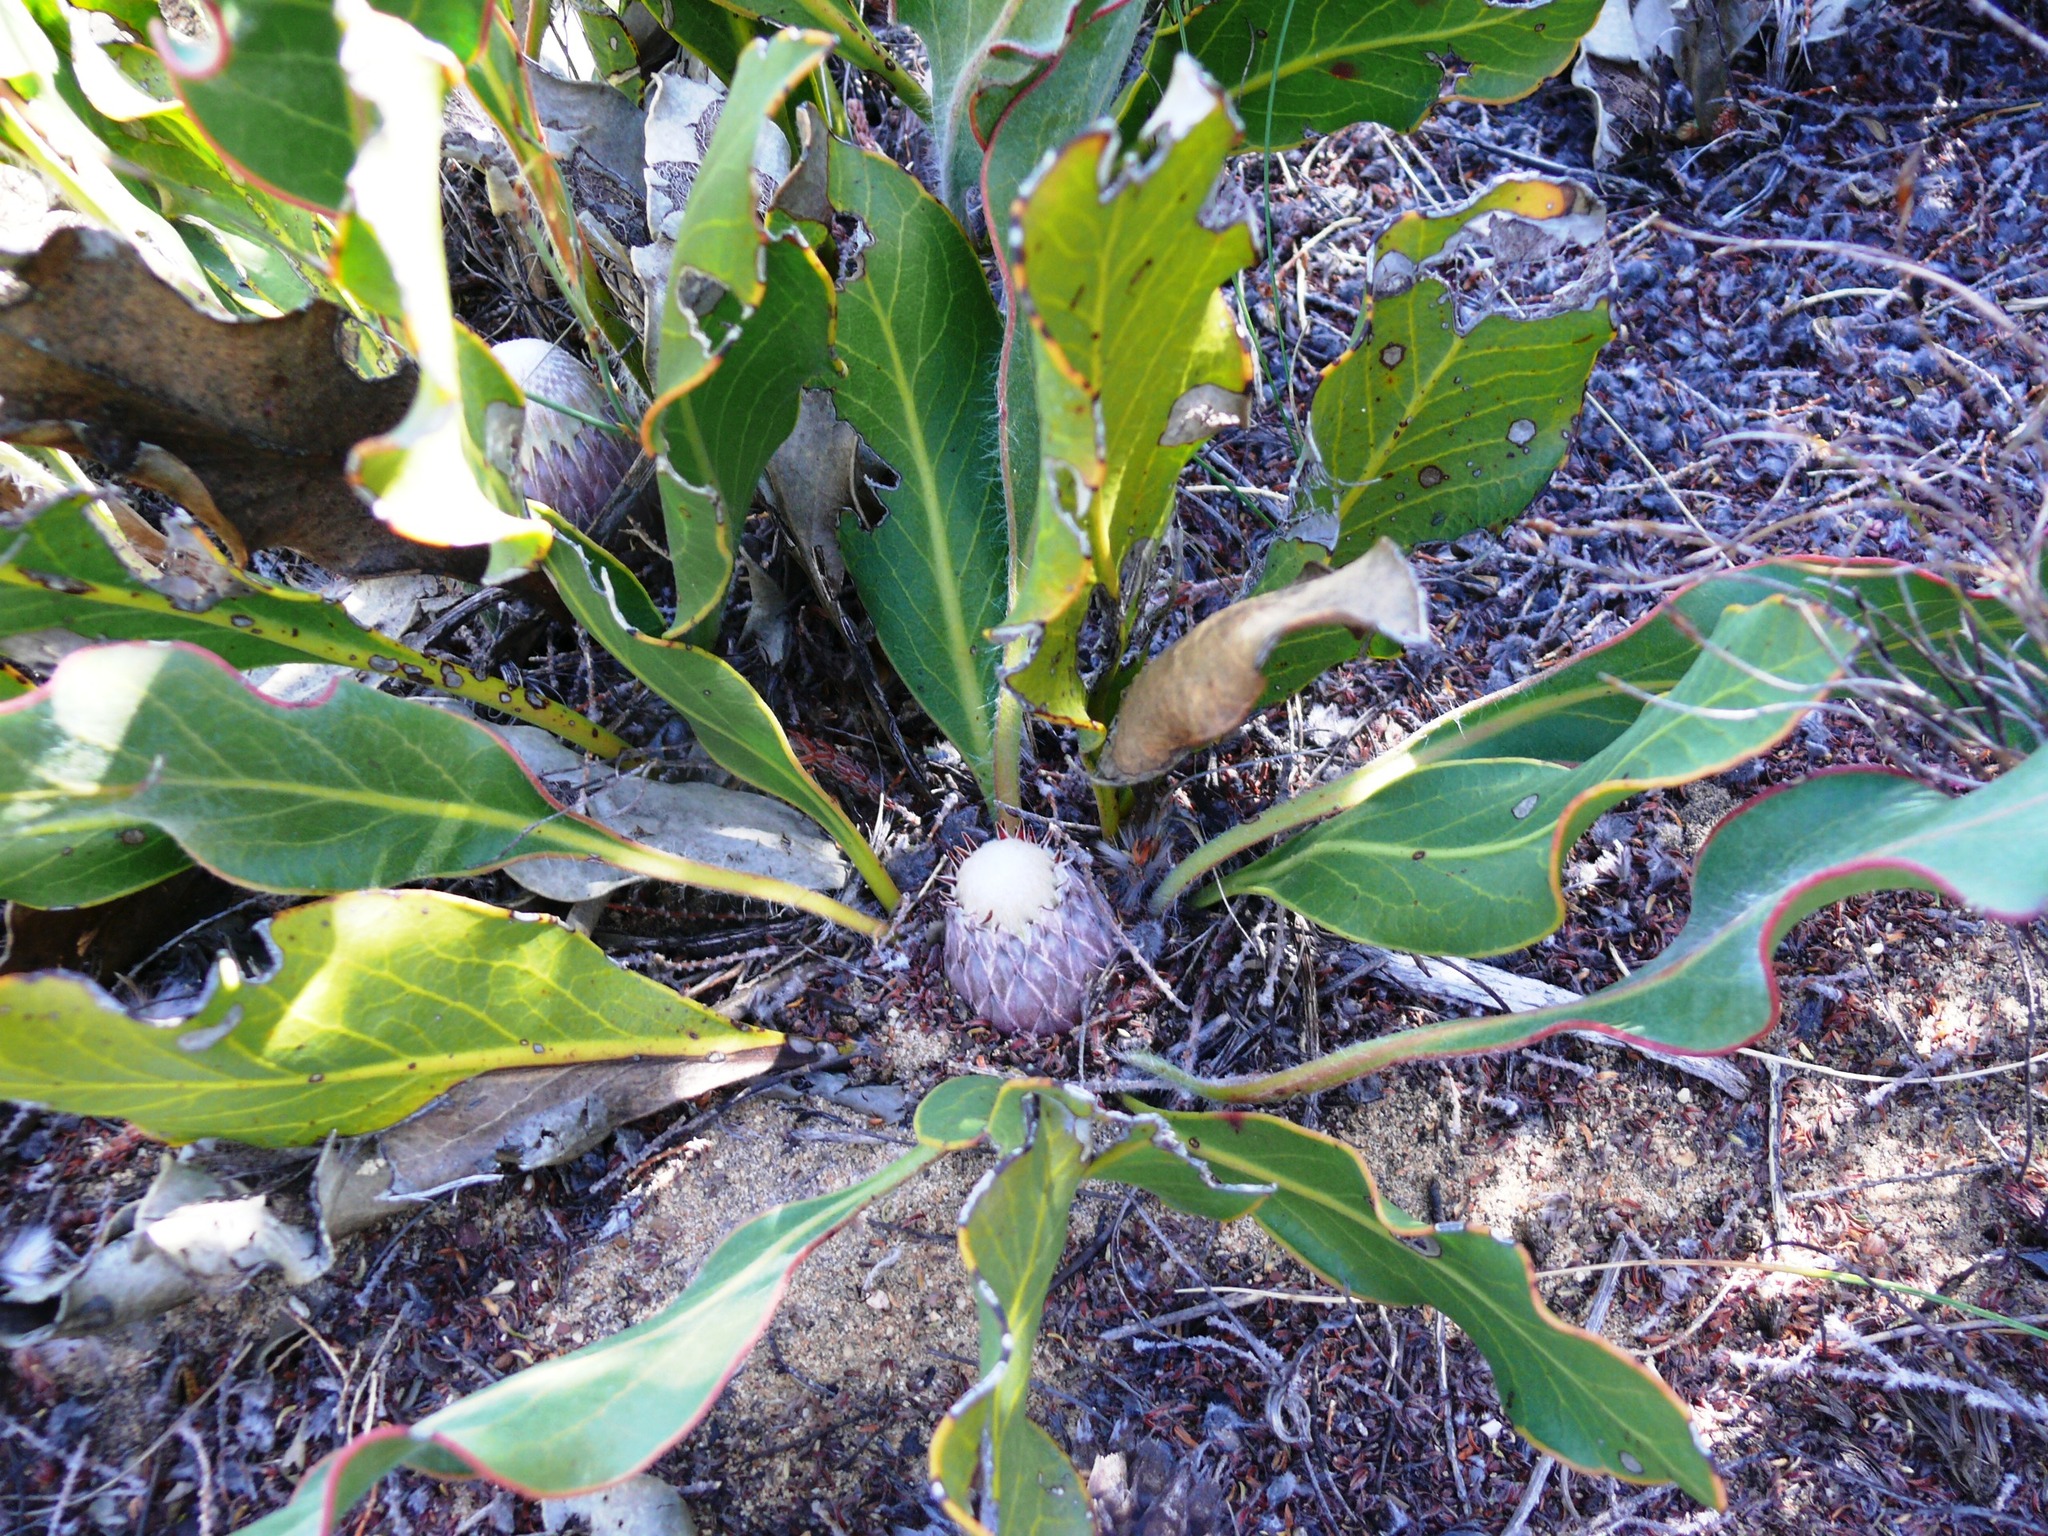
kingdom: Plantae
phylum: Tracheophyta
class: Magnoliopsida
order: Proteales
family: Proteaceae
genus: Protea
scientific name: Protea scolopendriifolia
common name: Harts-tongue-fern sugarbush
